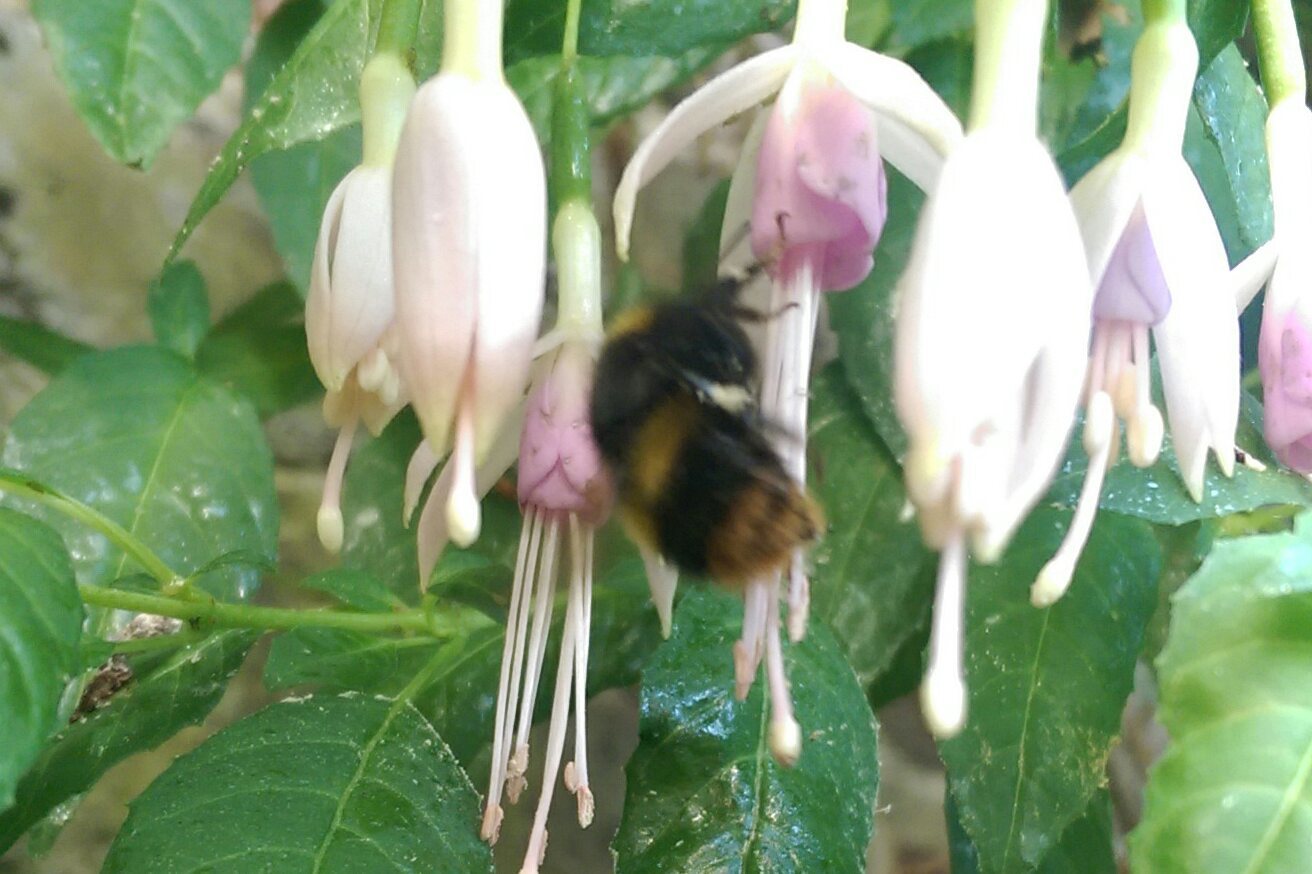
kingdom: Animalia
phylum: Arthropoda
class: Insecta
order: Hymenoptera
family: Apidae
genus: Bombus
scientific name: Bombus pratorum
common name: Early humble-bee
